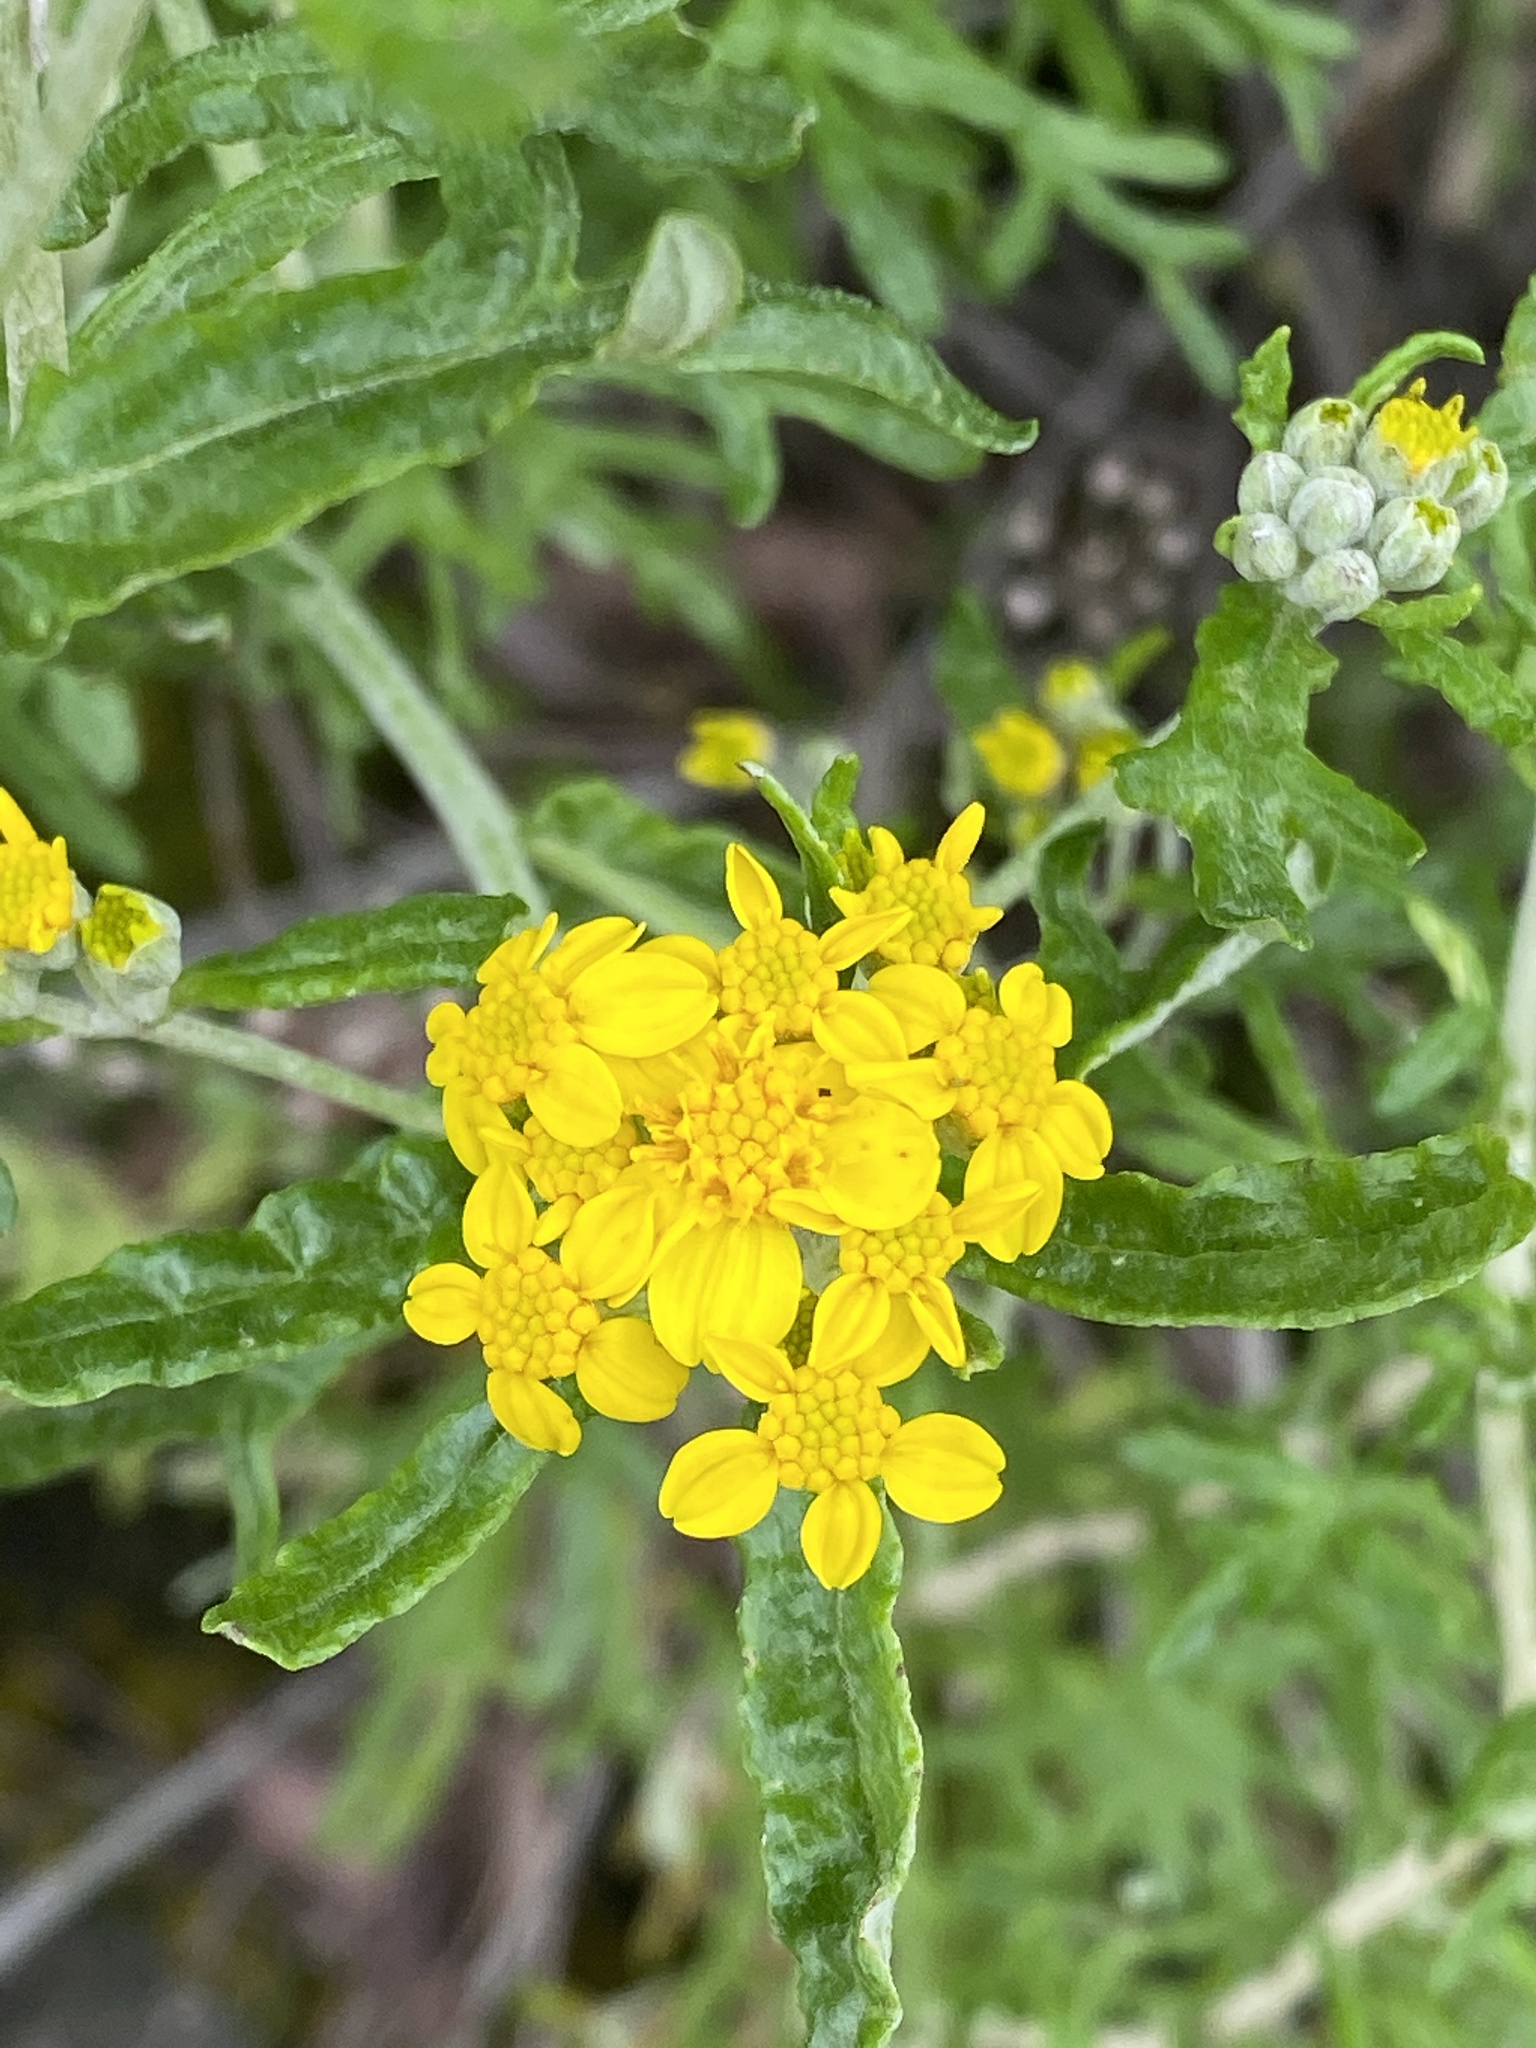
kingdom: Plantae
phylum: Tracheophyta
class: Magnoliopsida
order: Asterales
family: Asteraceae
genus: Eriophyllum
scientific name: Eriophyllum confertiflorum
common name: Golden-yarrow
